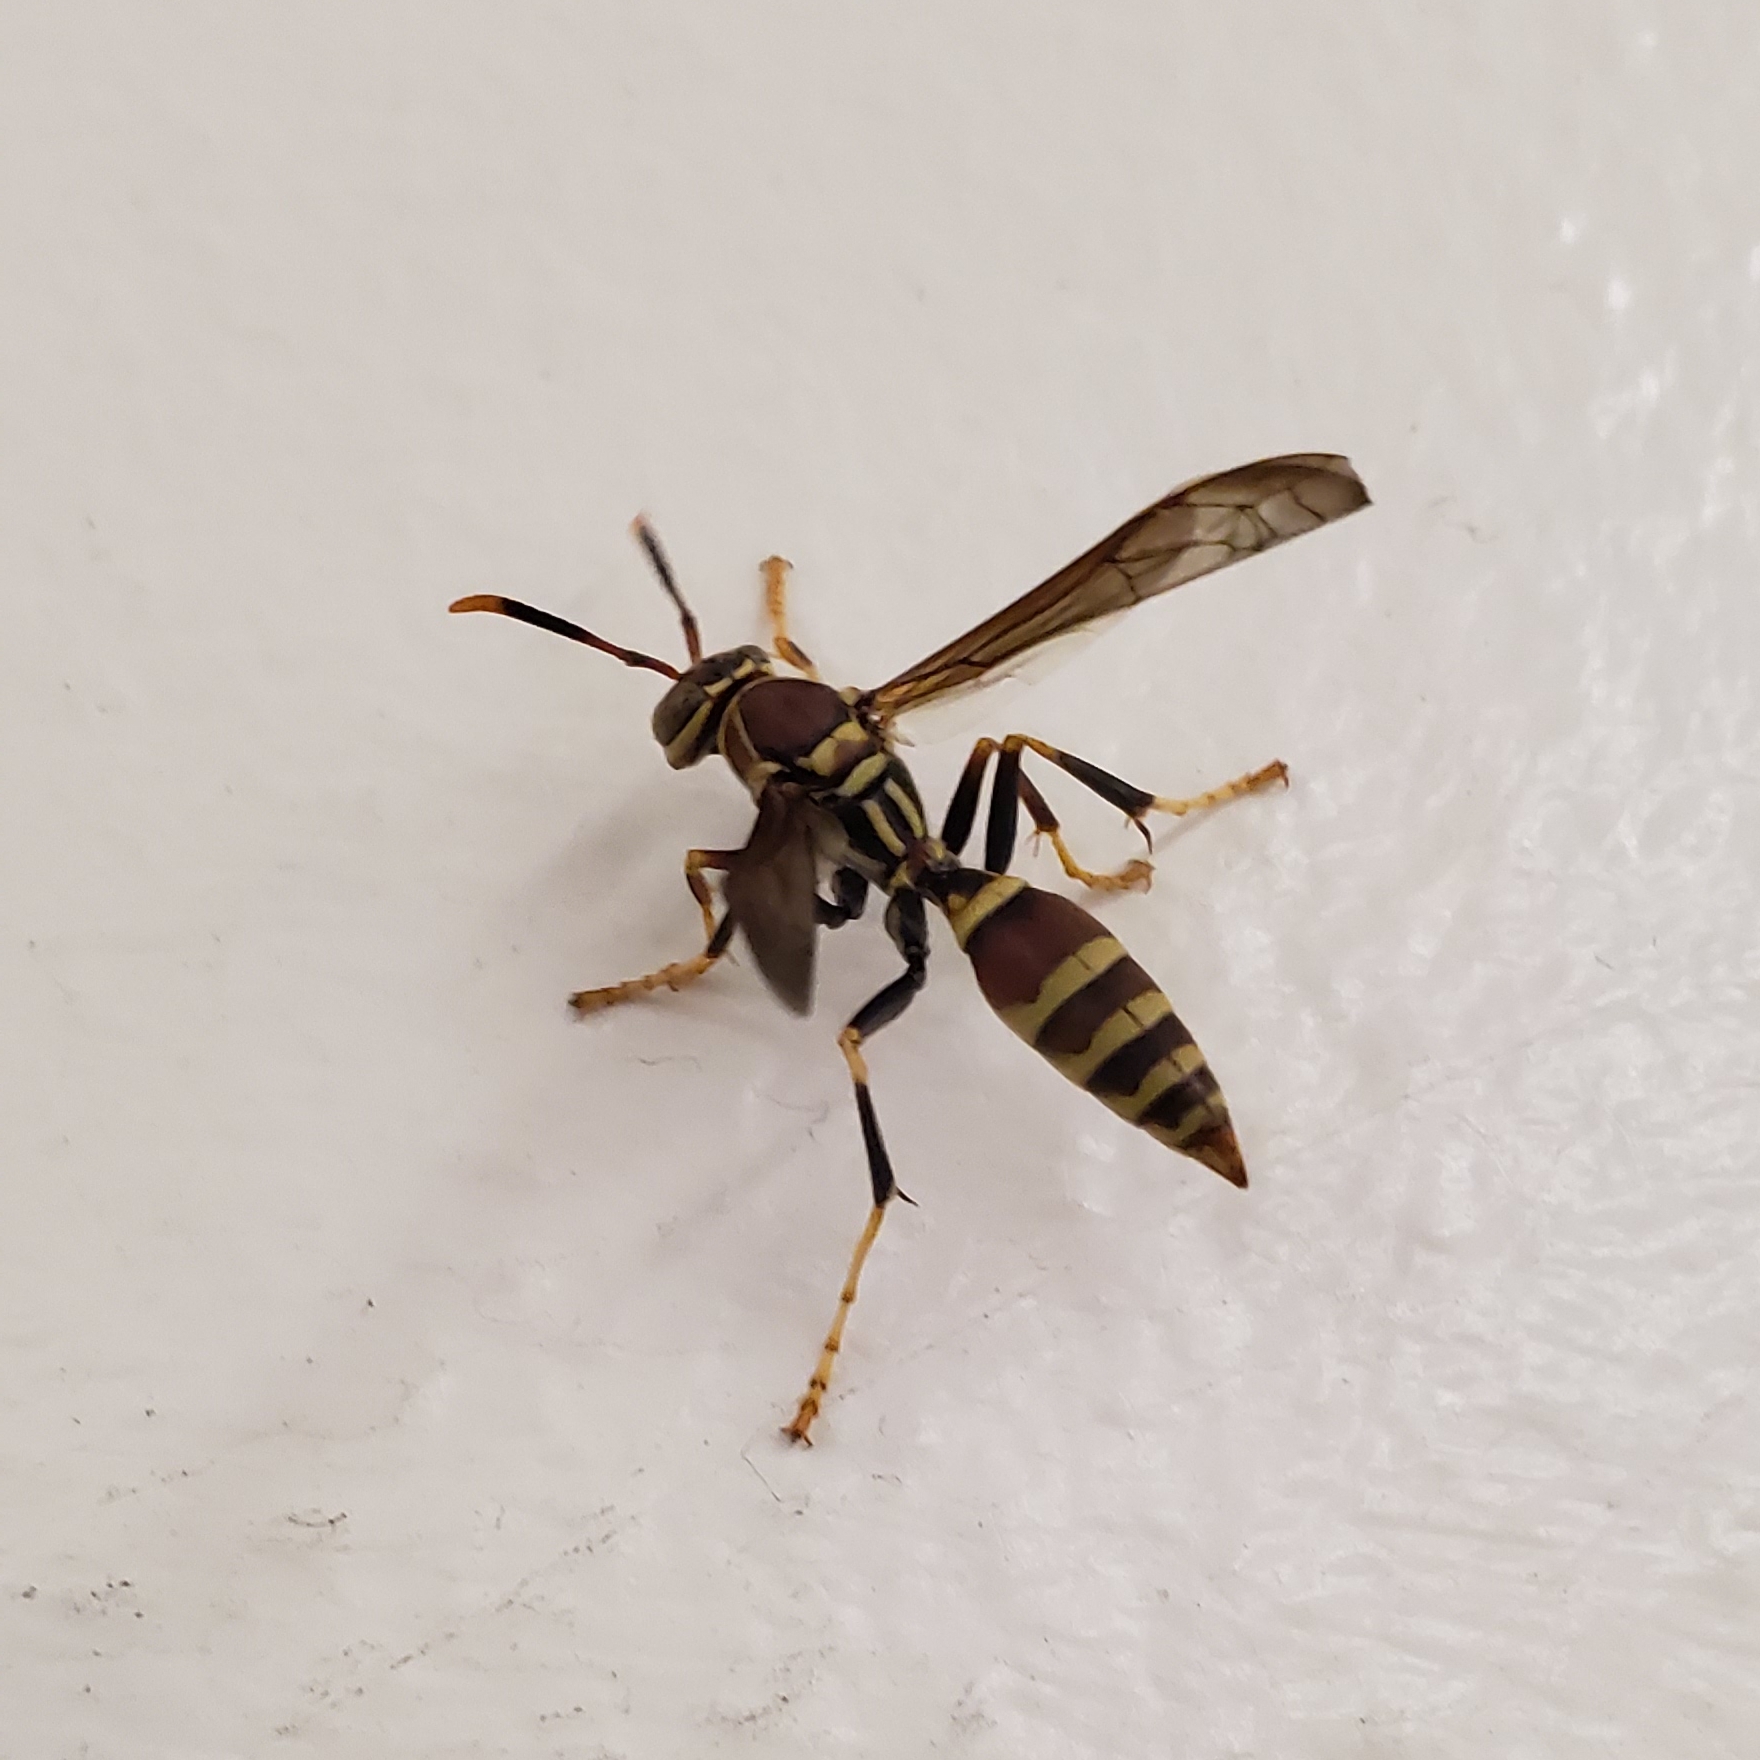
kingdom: Animalia
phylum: Arthropoda
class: Insecta
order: Hymenoptera
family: Eumenidae
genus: Polistes
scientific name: Polistes exclamans
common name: Paper wasp
